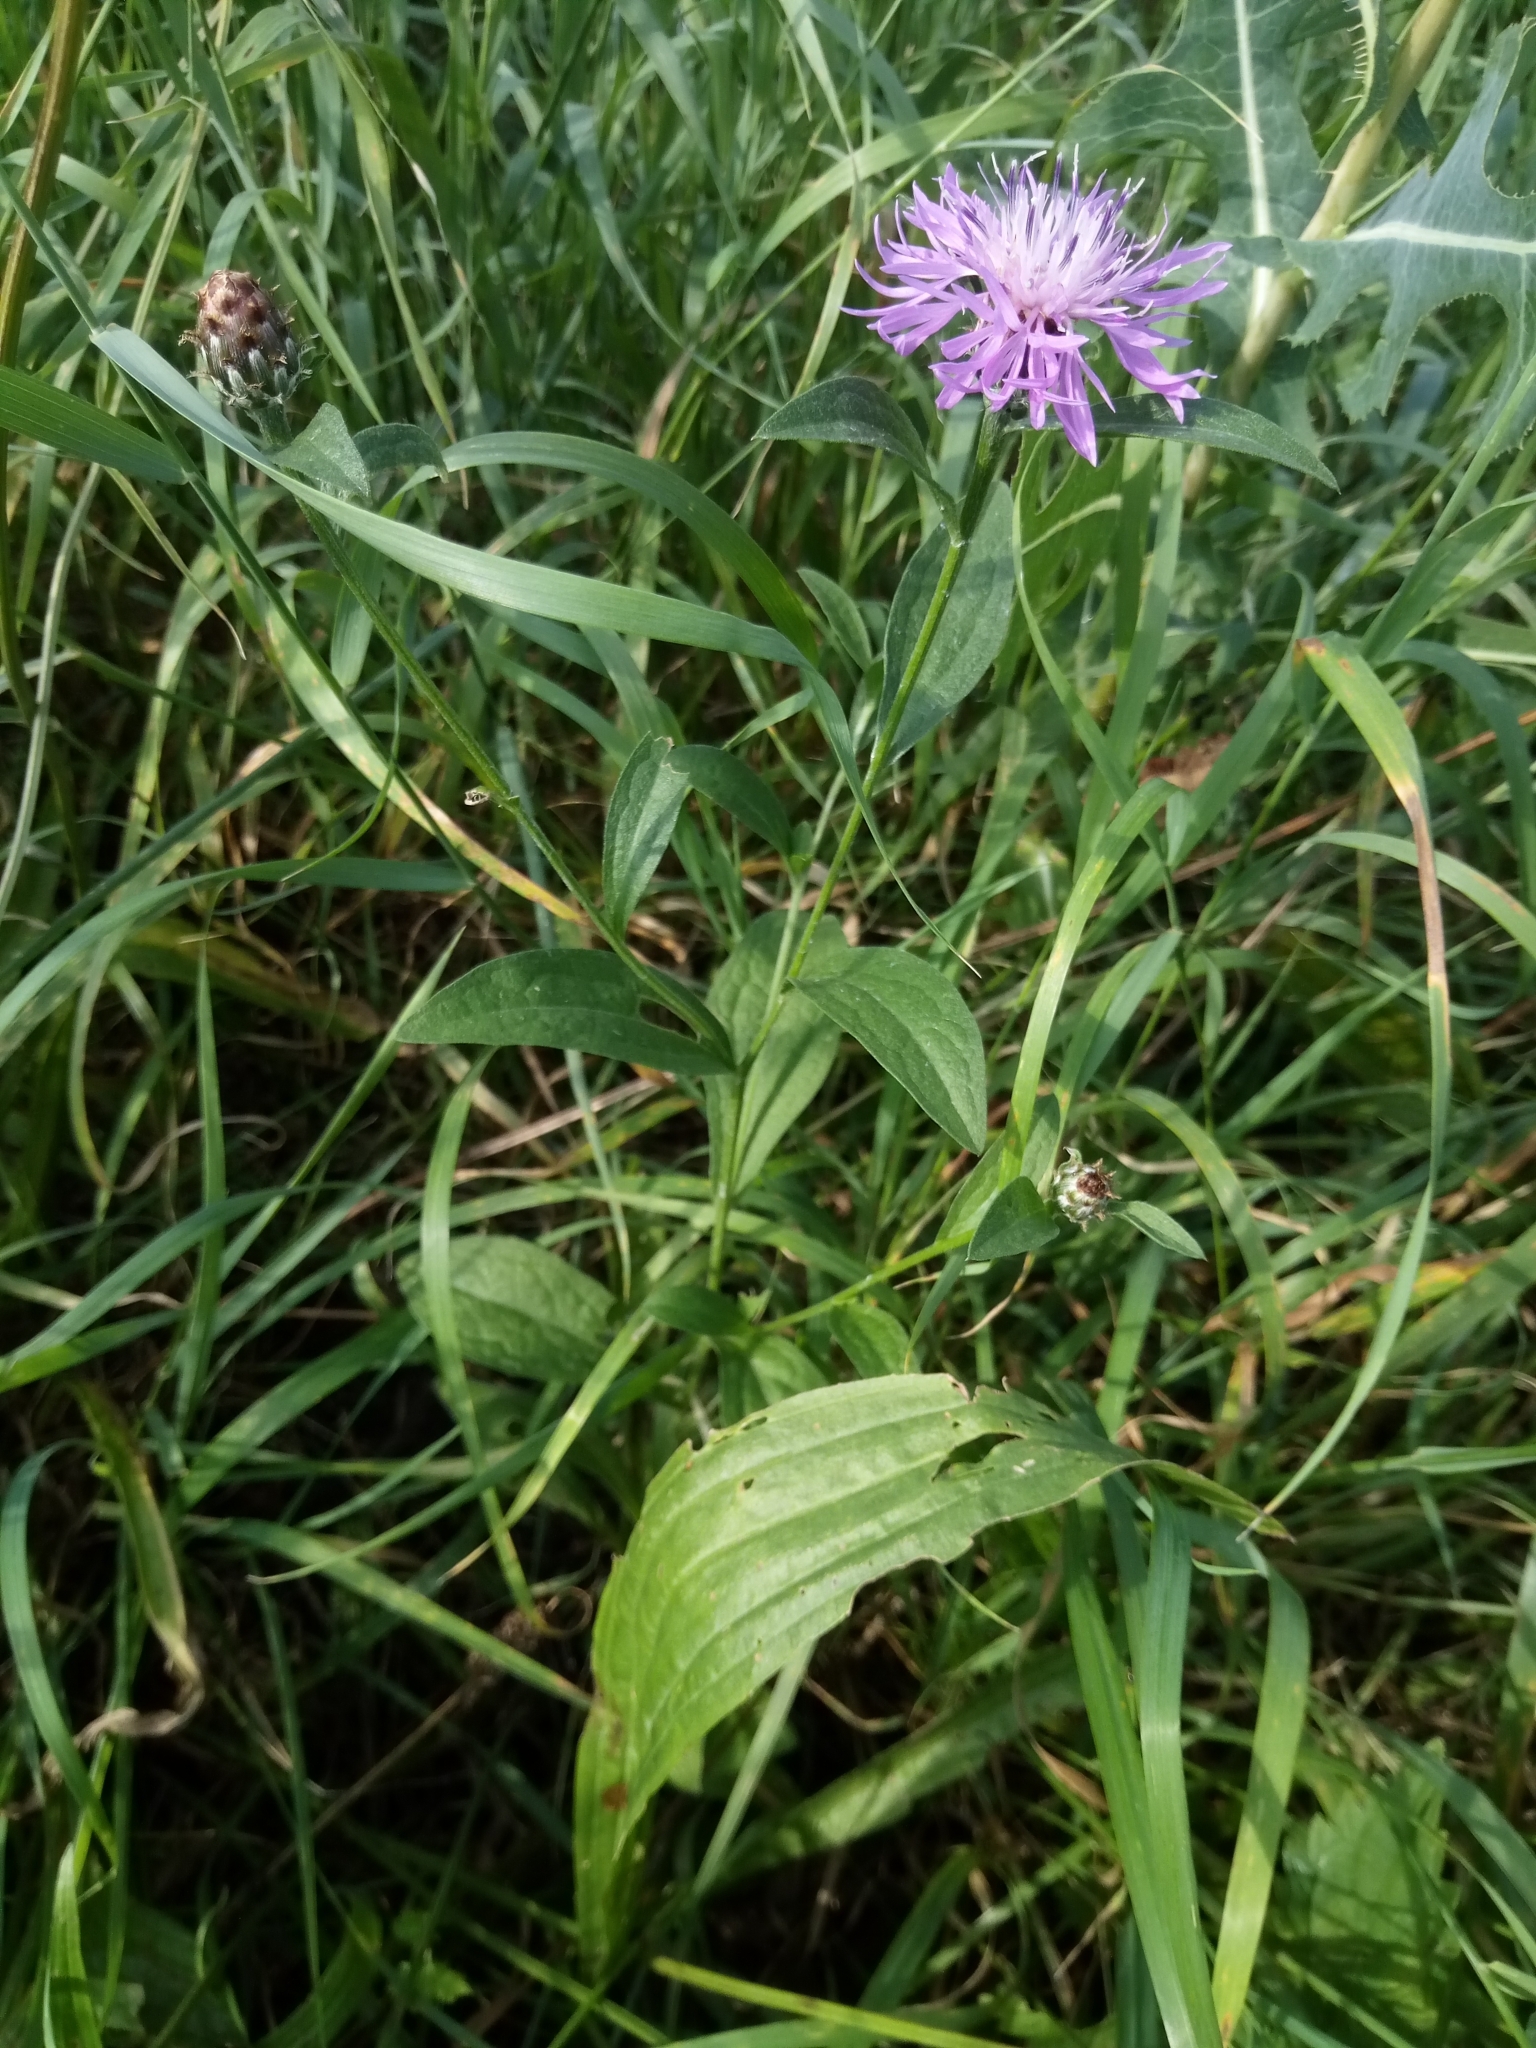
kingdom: Plantae
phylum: Tracheophyta
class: Magnoliopsida
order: Asterales
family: Asteraceae
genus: Centaurea
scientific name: Centaurea fleischeri
